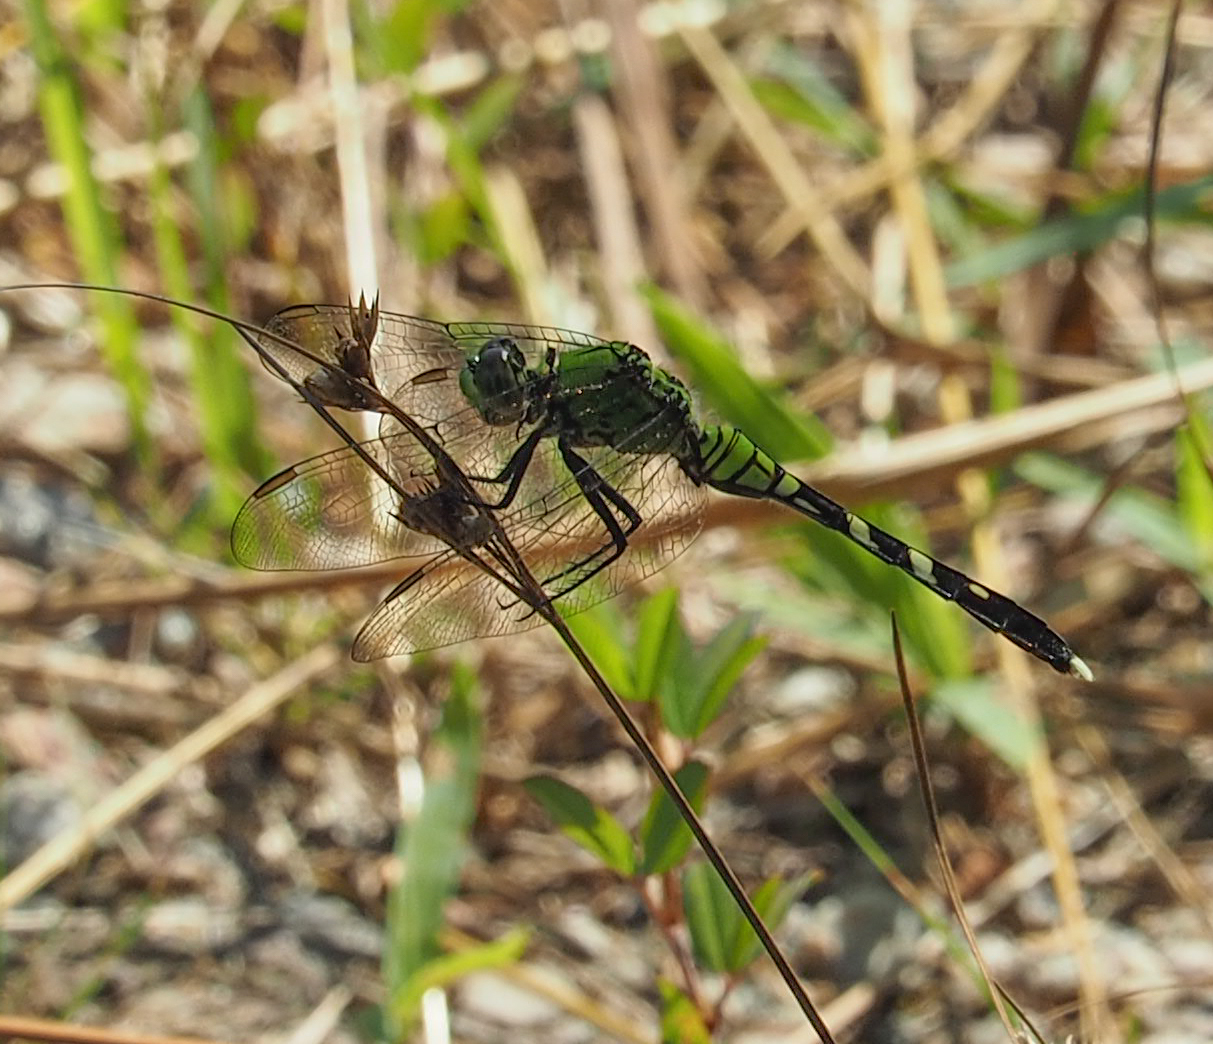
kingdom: Animalia
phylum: Arthropoda
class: Insecta
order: Odonata
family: Libellulidae
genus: Erythemis
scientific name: Erythemis simplicicollis
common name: Eastern pondhawk
